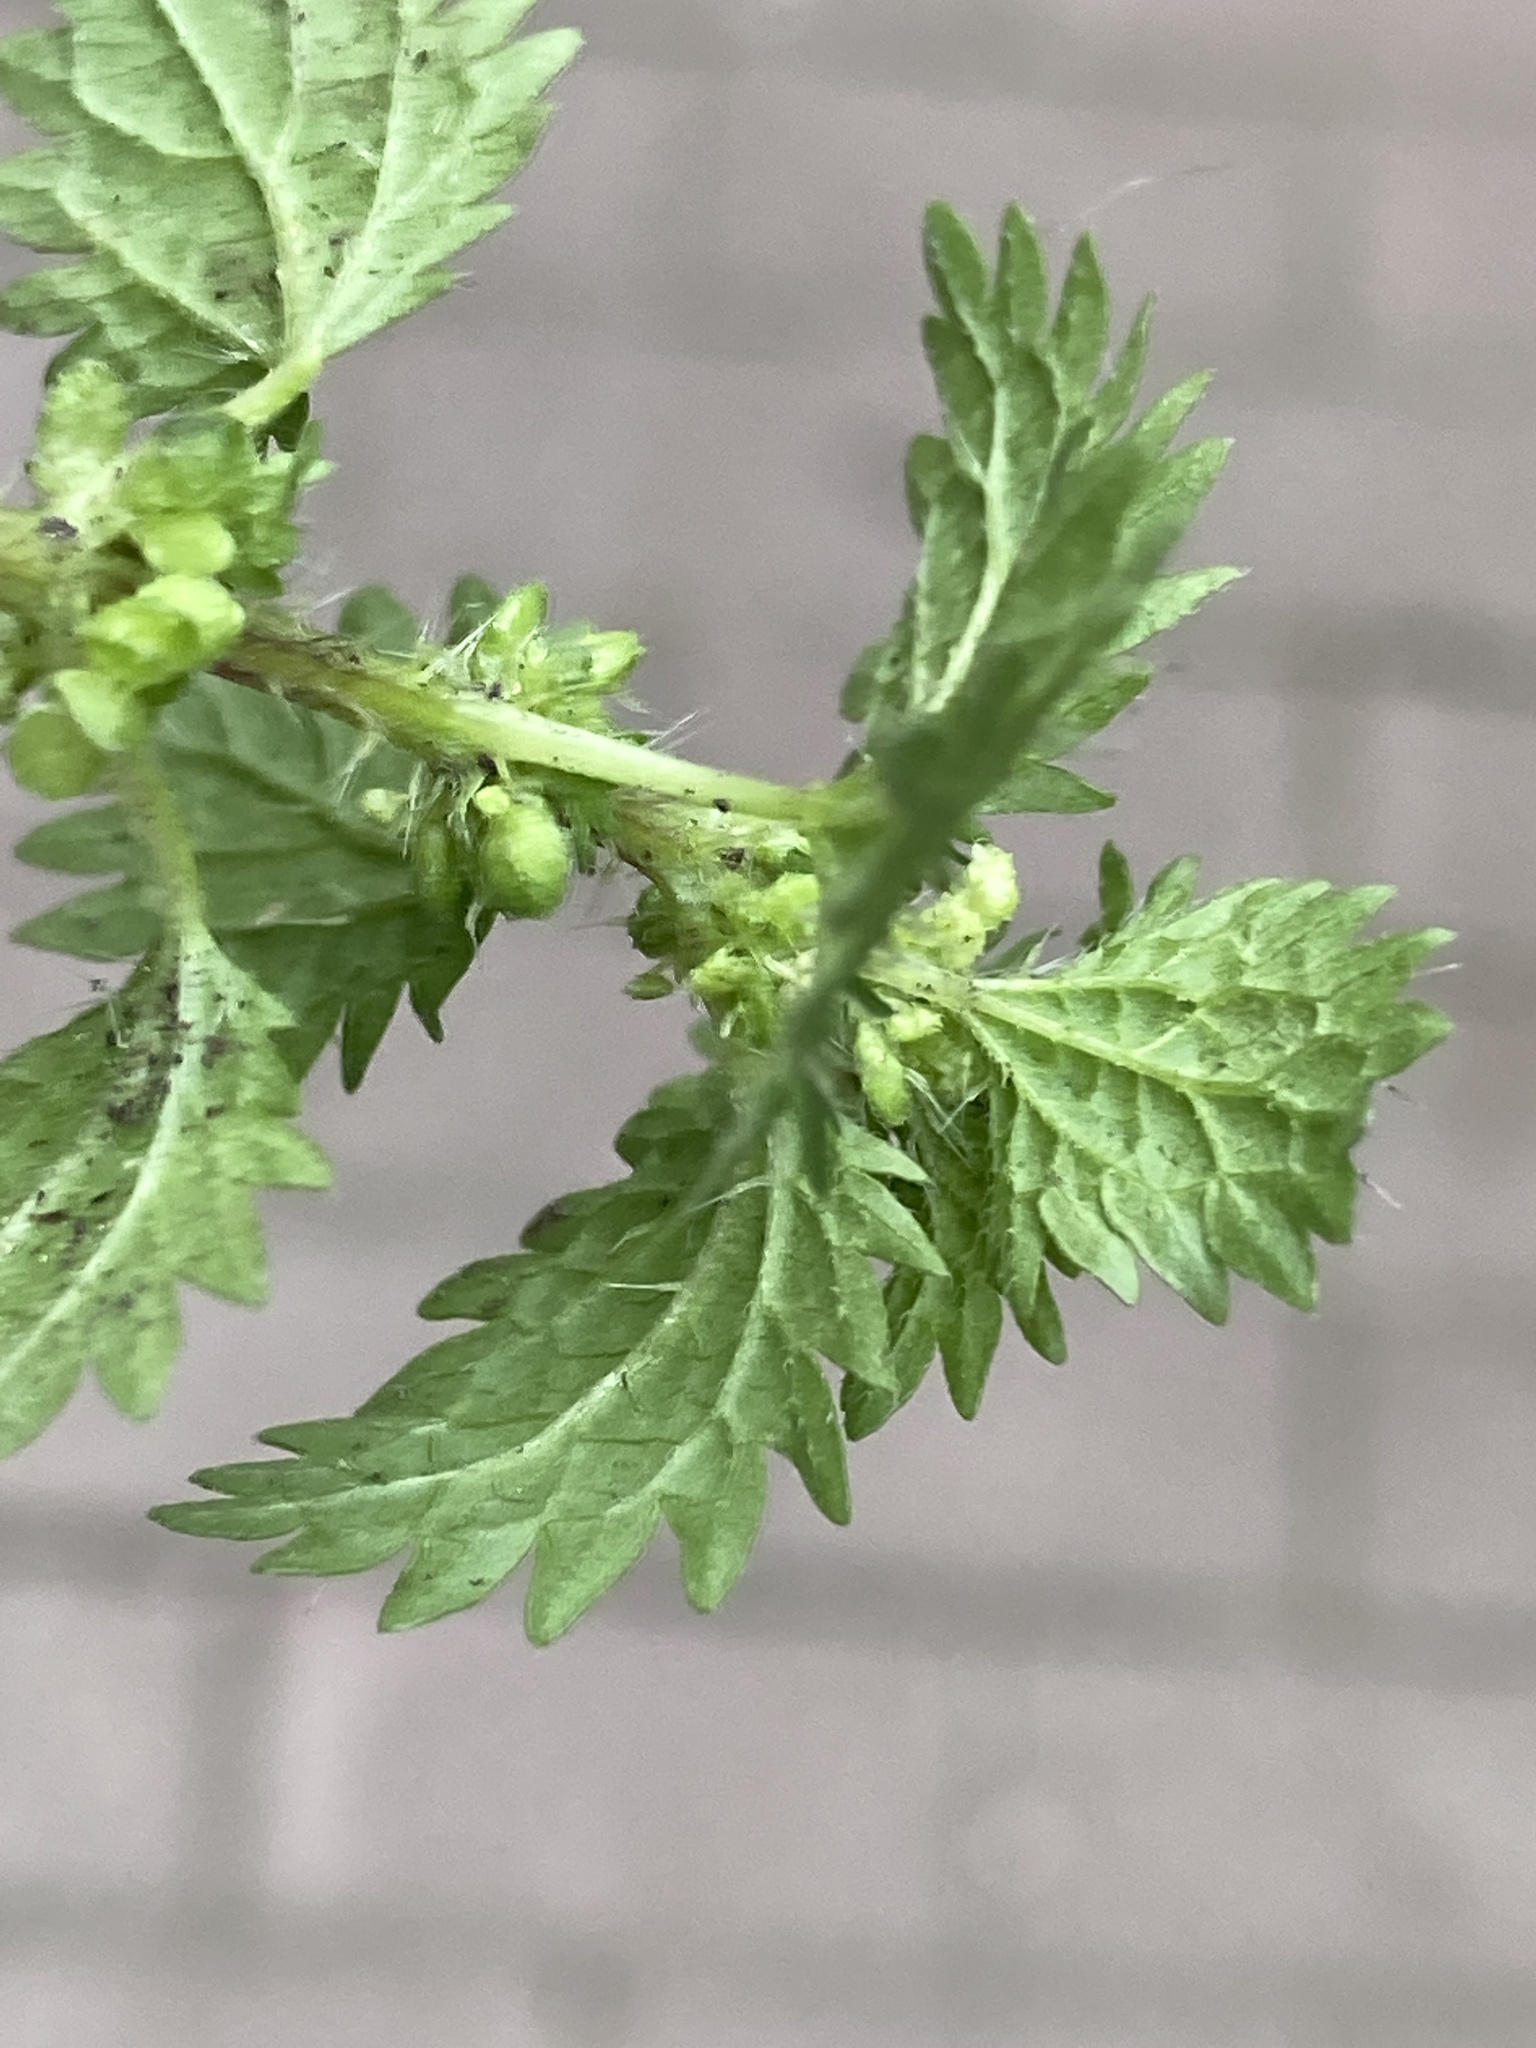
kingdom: Plantae
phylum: Tracheophyta
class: Magnoliopsida
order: Rosales
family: Urticaceae
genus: Urtica
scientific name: Urtica urens
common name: Dwarf nettle
